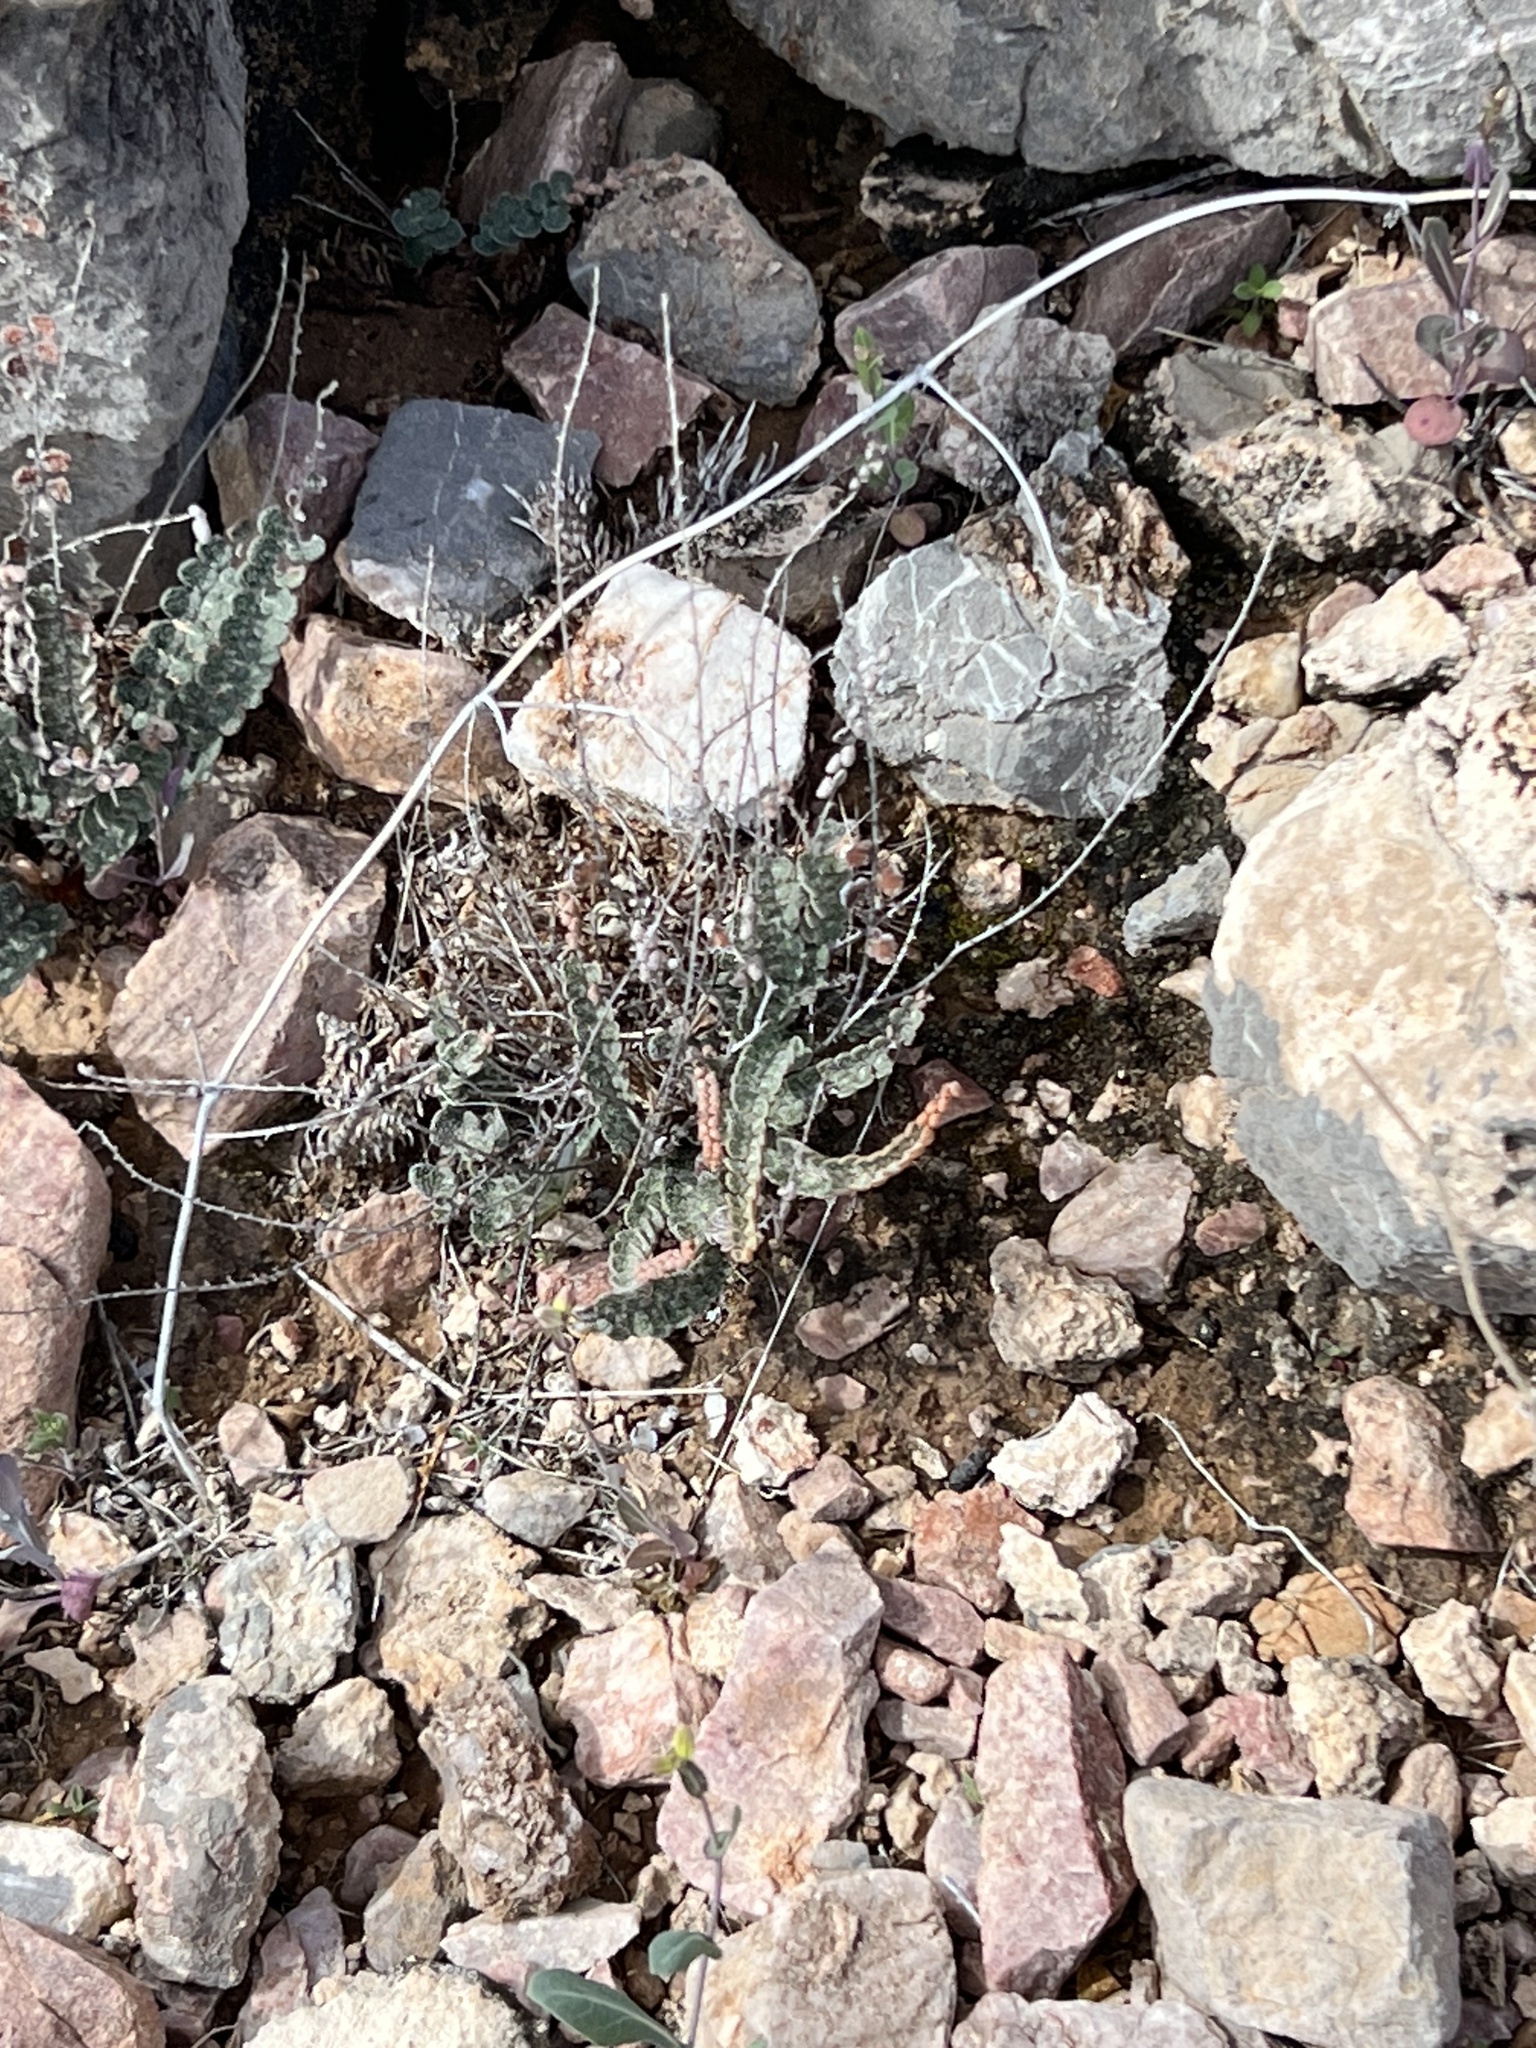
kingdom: Plantae
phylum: Tracheophyta
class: Polypodiopsida
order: Polypodiales
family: Pteridaceae
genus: Astrolepis
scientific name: Astrolepis cochisensis
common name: Scaly cloak fern
